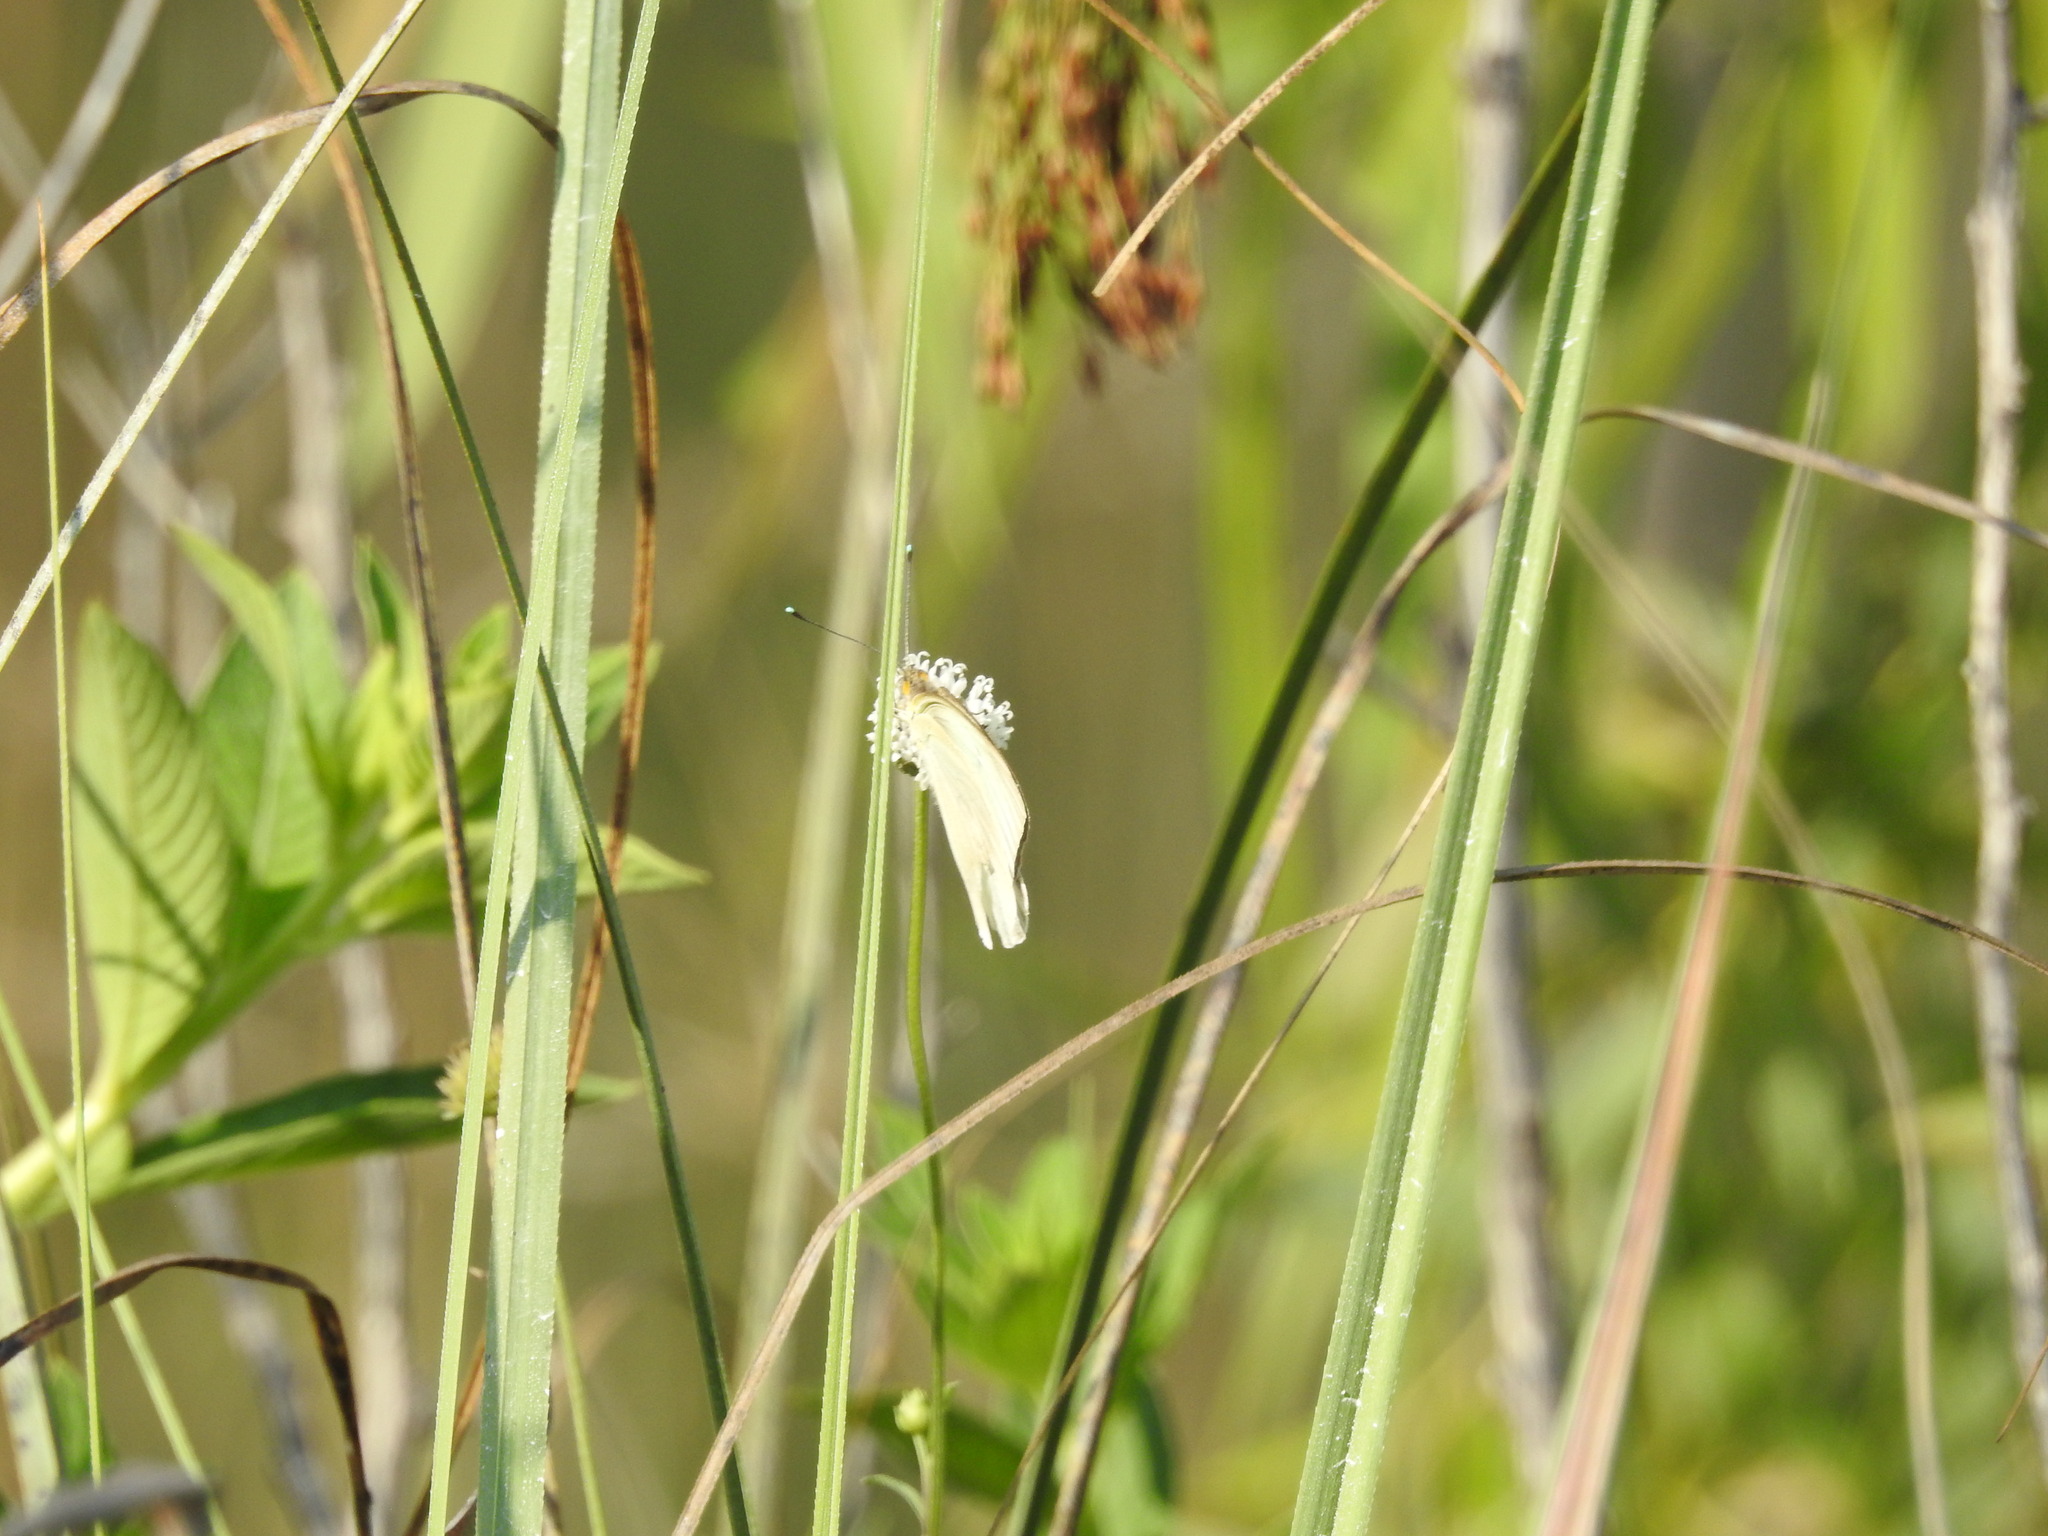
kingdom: Animalia
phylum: Arthropoda
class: Insecta
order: Lepidoptera
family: Pieridae
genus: Ascia
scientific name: Ascia monuste
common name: Great southern white
